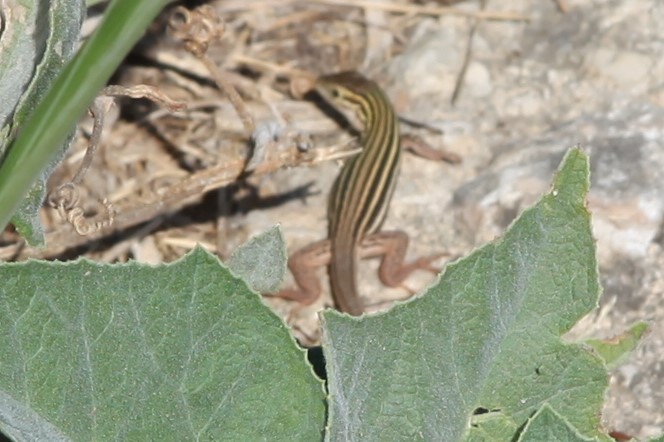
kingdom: Animalia
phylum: Chordata
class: Squamata
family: Teiidae
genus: Aspidoscelis
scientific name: Aspidoscelis gularis
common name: Eastern spotted whiptail
